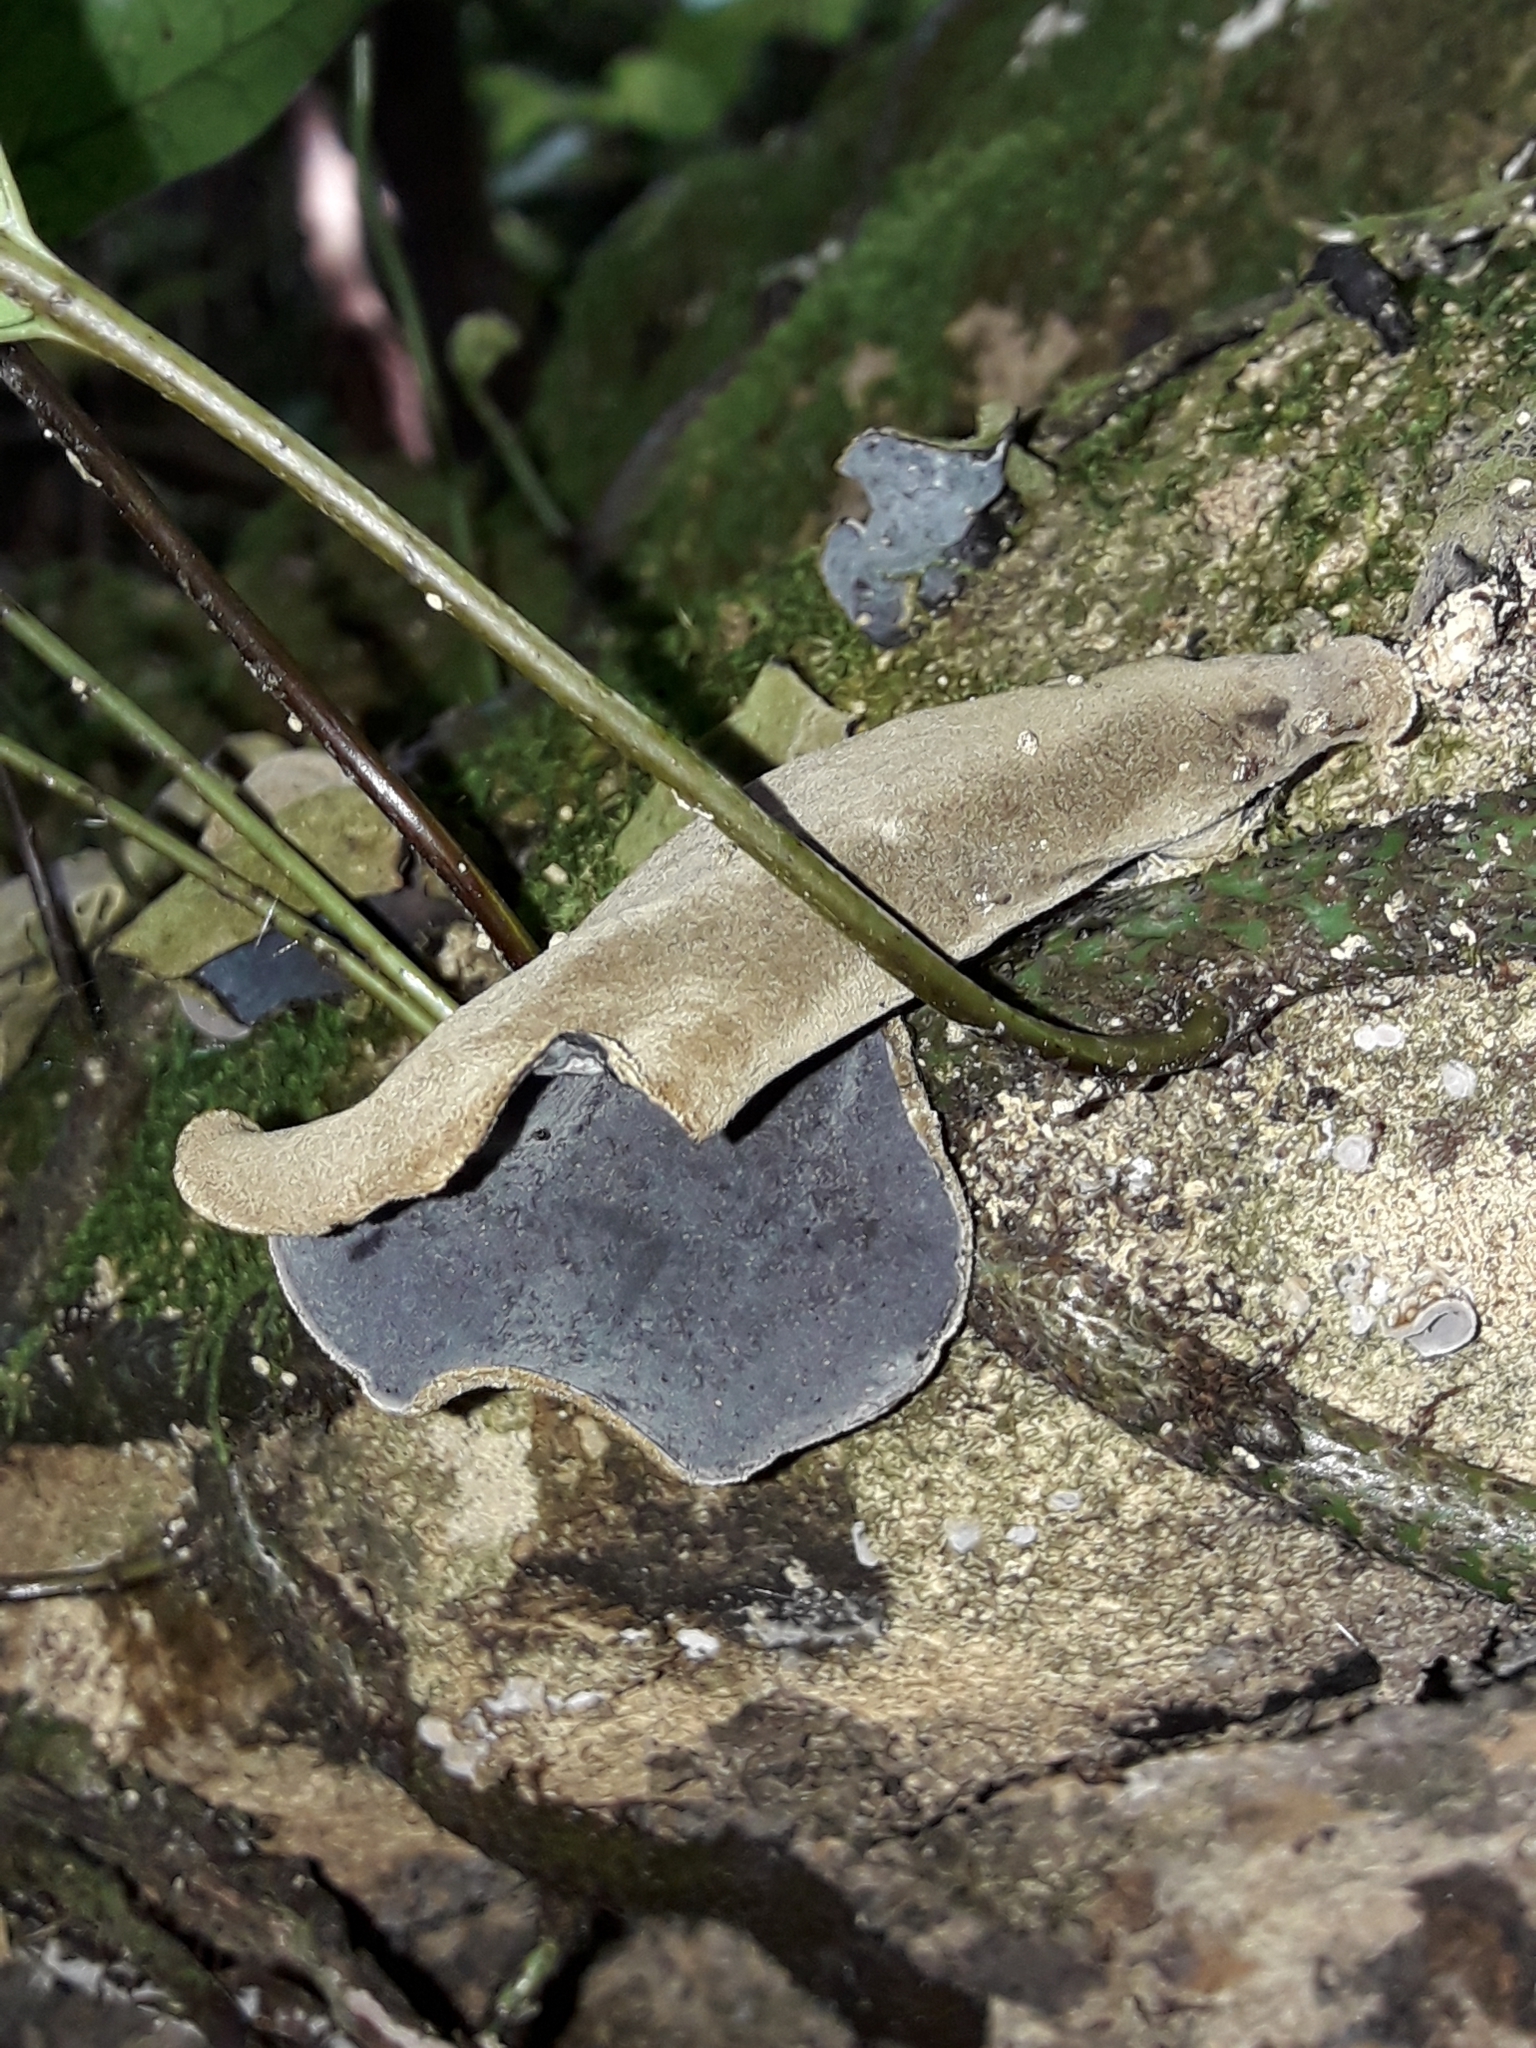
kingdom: Fungi
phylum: Basidiomycota
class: Agaricomycetes
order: Auriculariales
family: Auriculariaceae
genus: Auricularia
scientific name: Auricularia cornea
